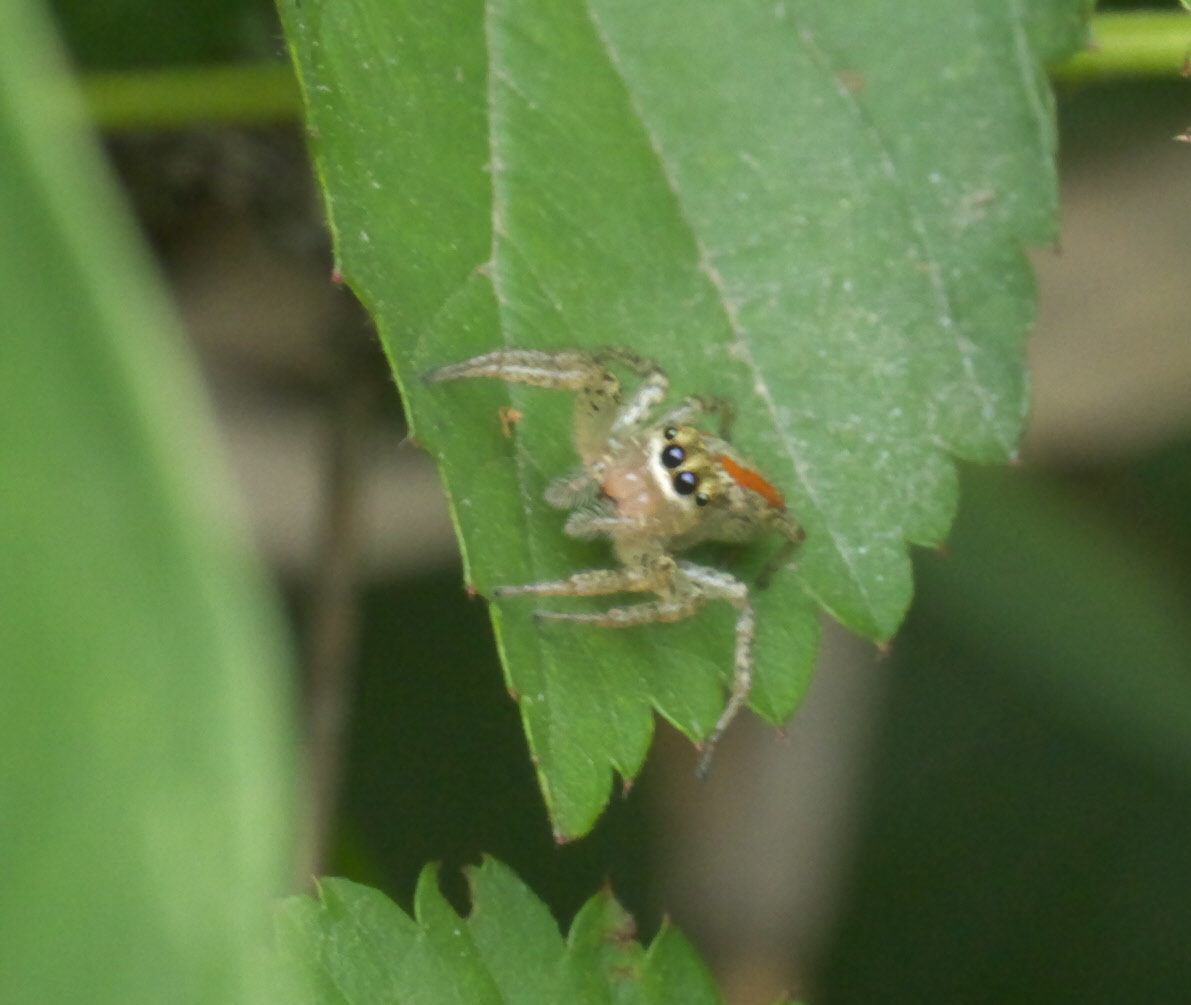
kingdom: Animalia
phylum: Arthropoda
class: Arachnida
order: Araneae
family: Salticidae
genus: Maevia
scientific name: Maevia inclemens
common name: Dimorphic jumper
